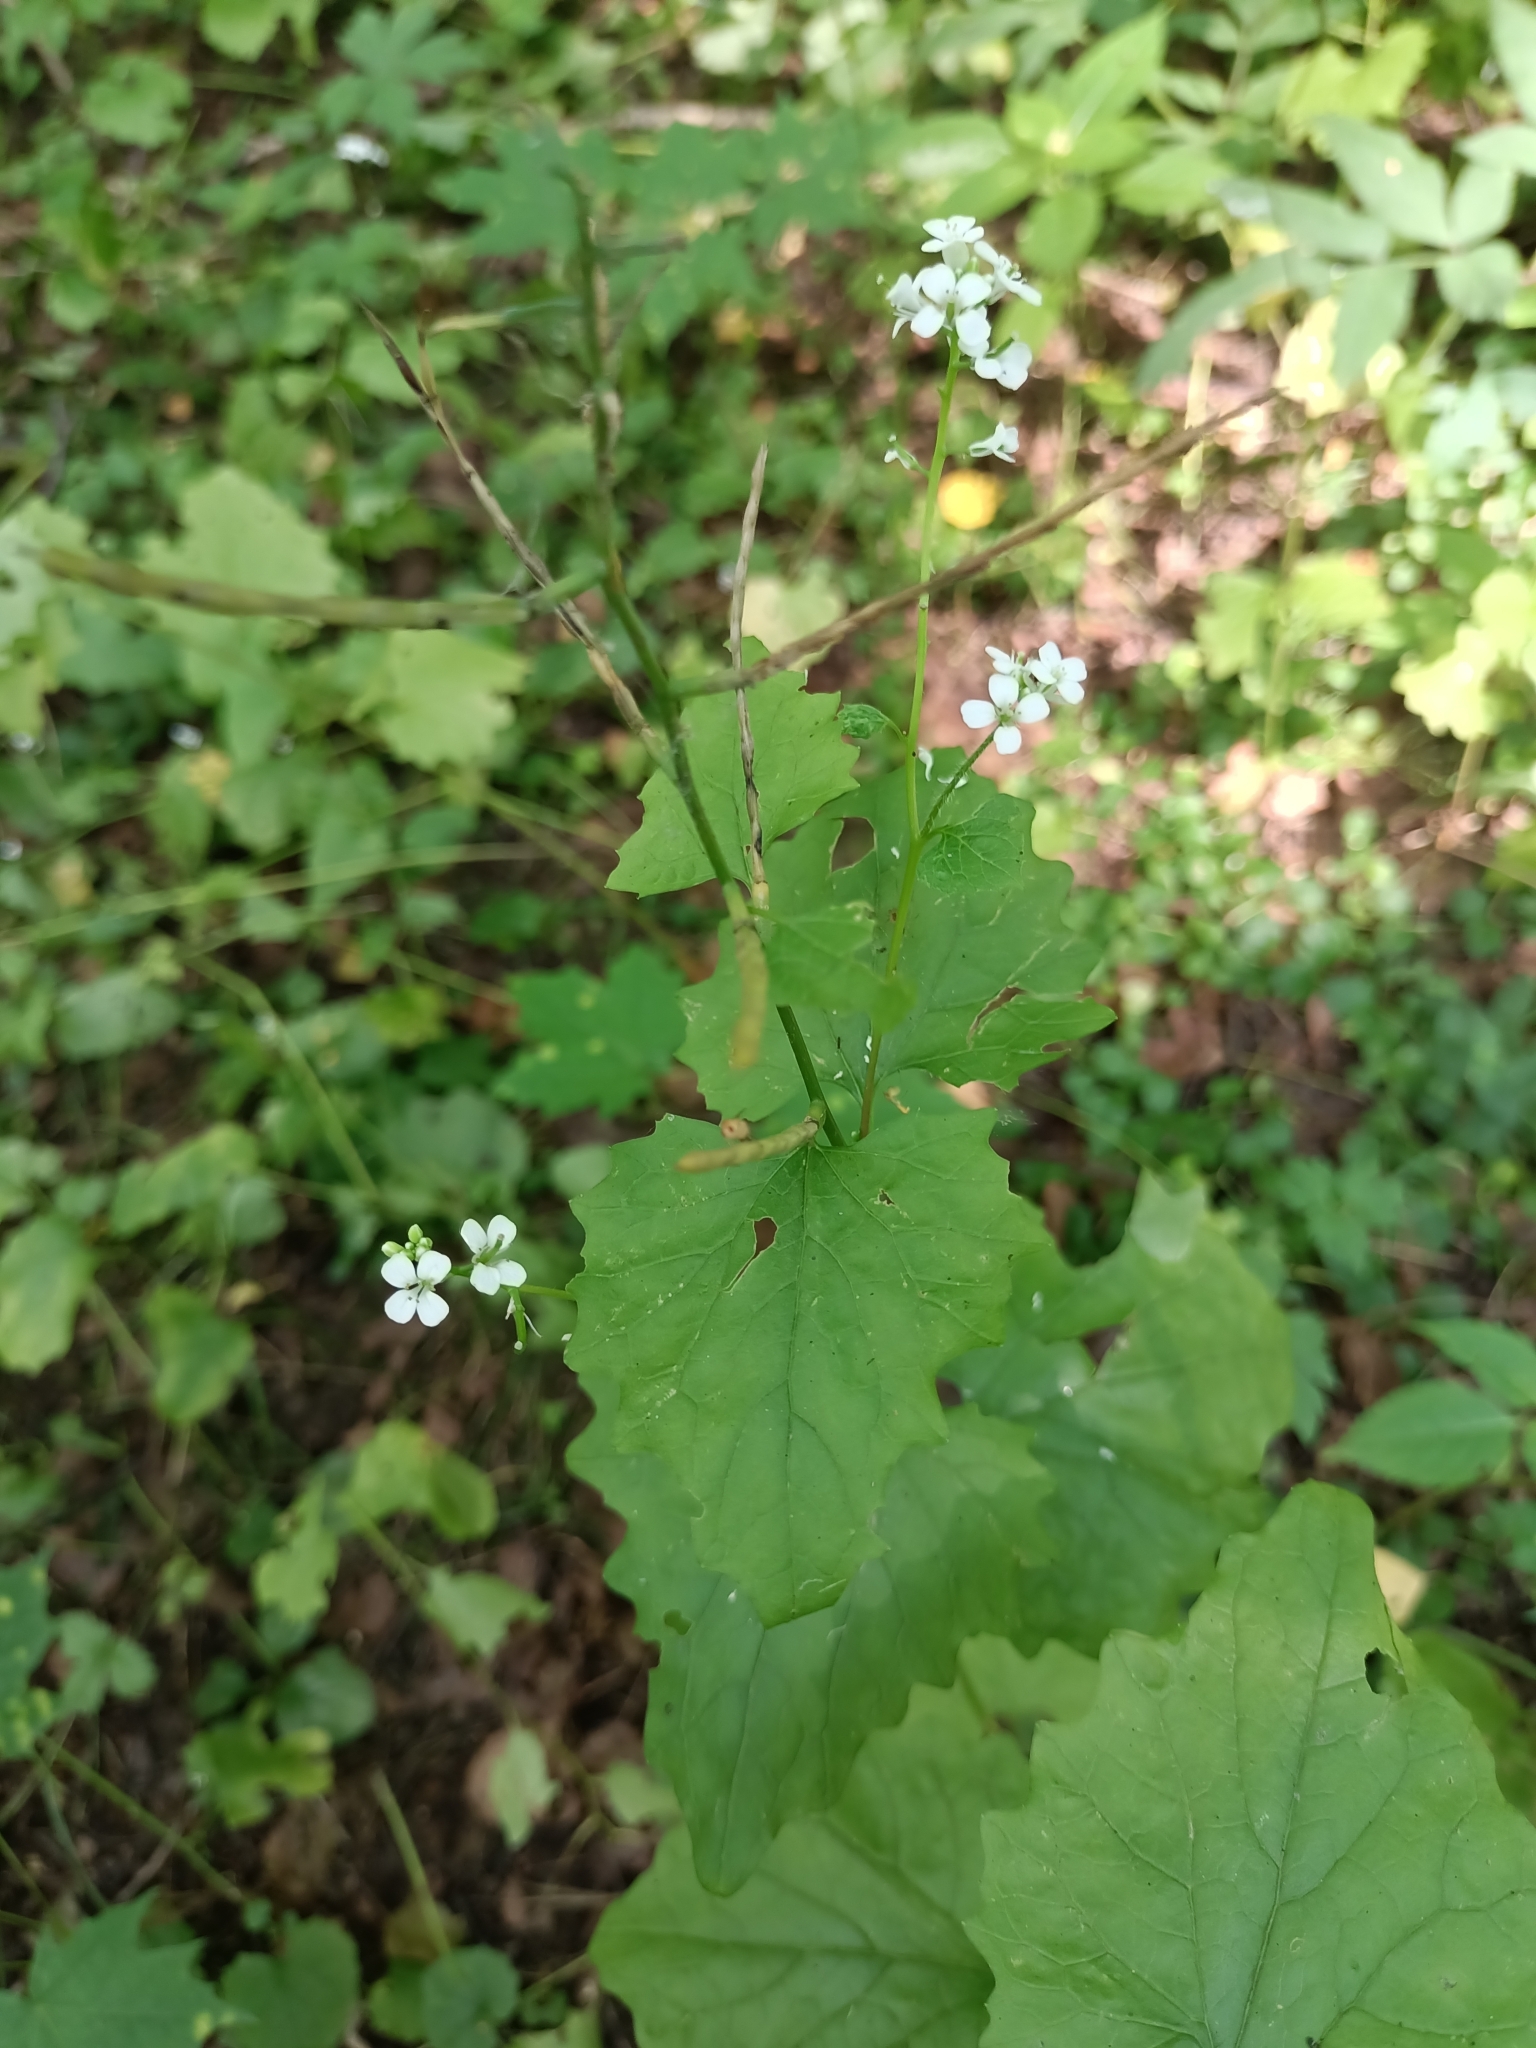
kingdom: Plantae
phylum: Tracheophyta
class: Magnoliopsida
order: Brassicales
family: Brassicaceae
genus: Alliaria
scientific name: Alliaria petiolata
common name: Garlic mustard
